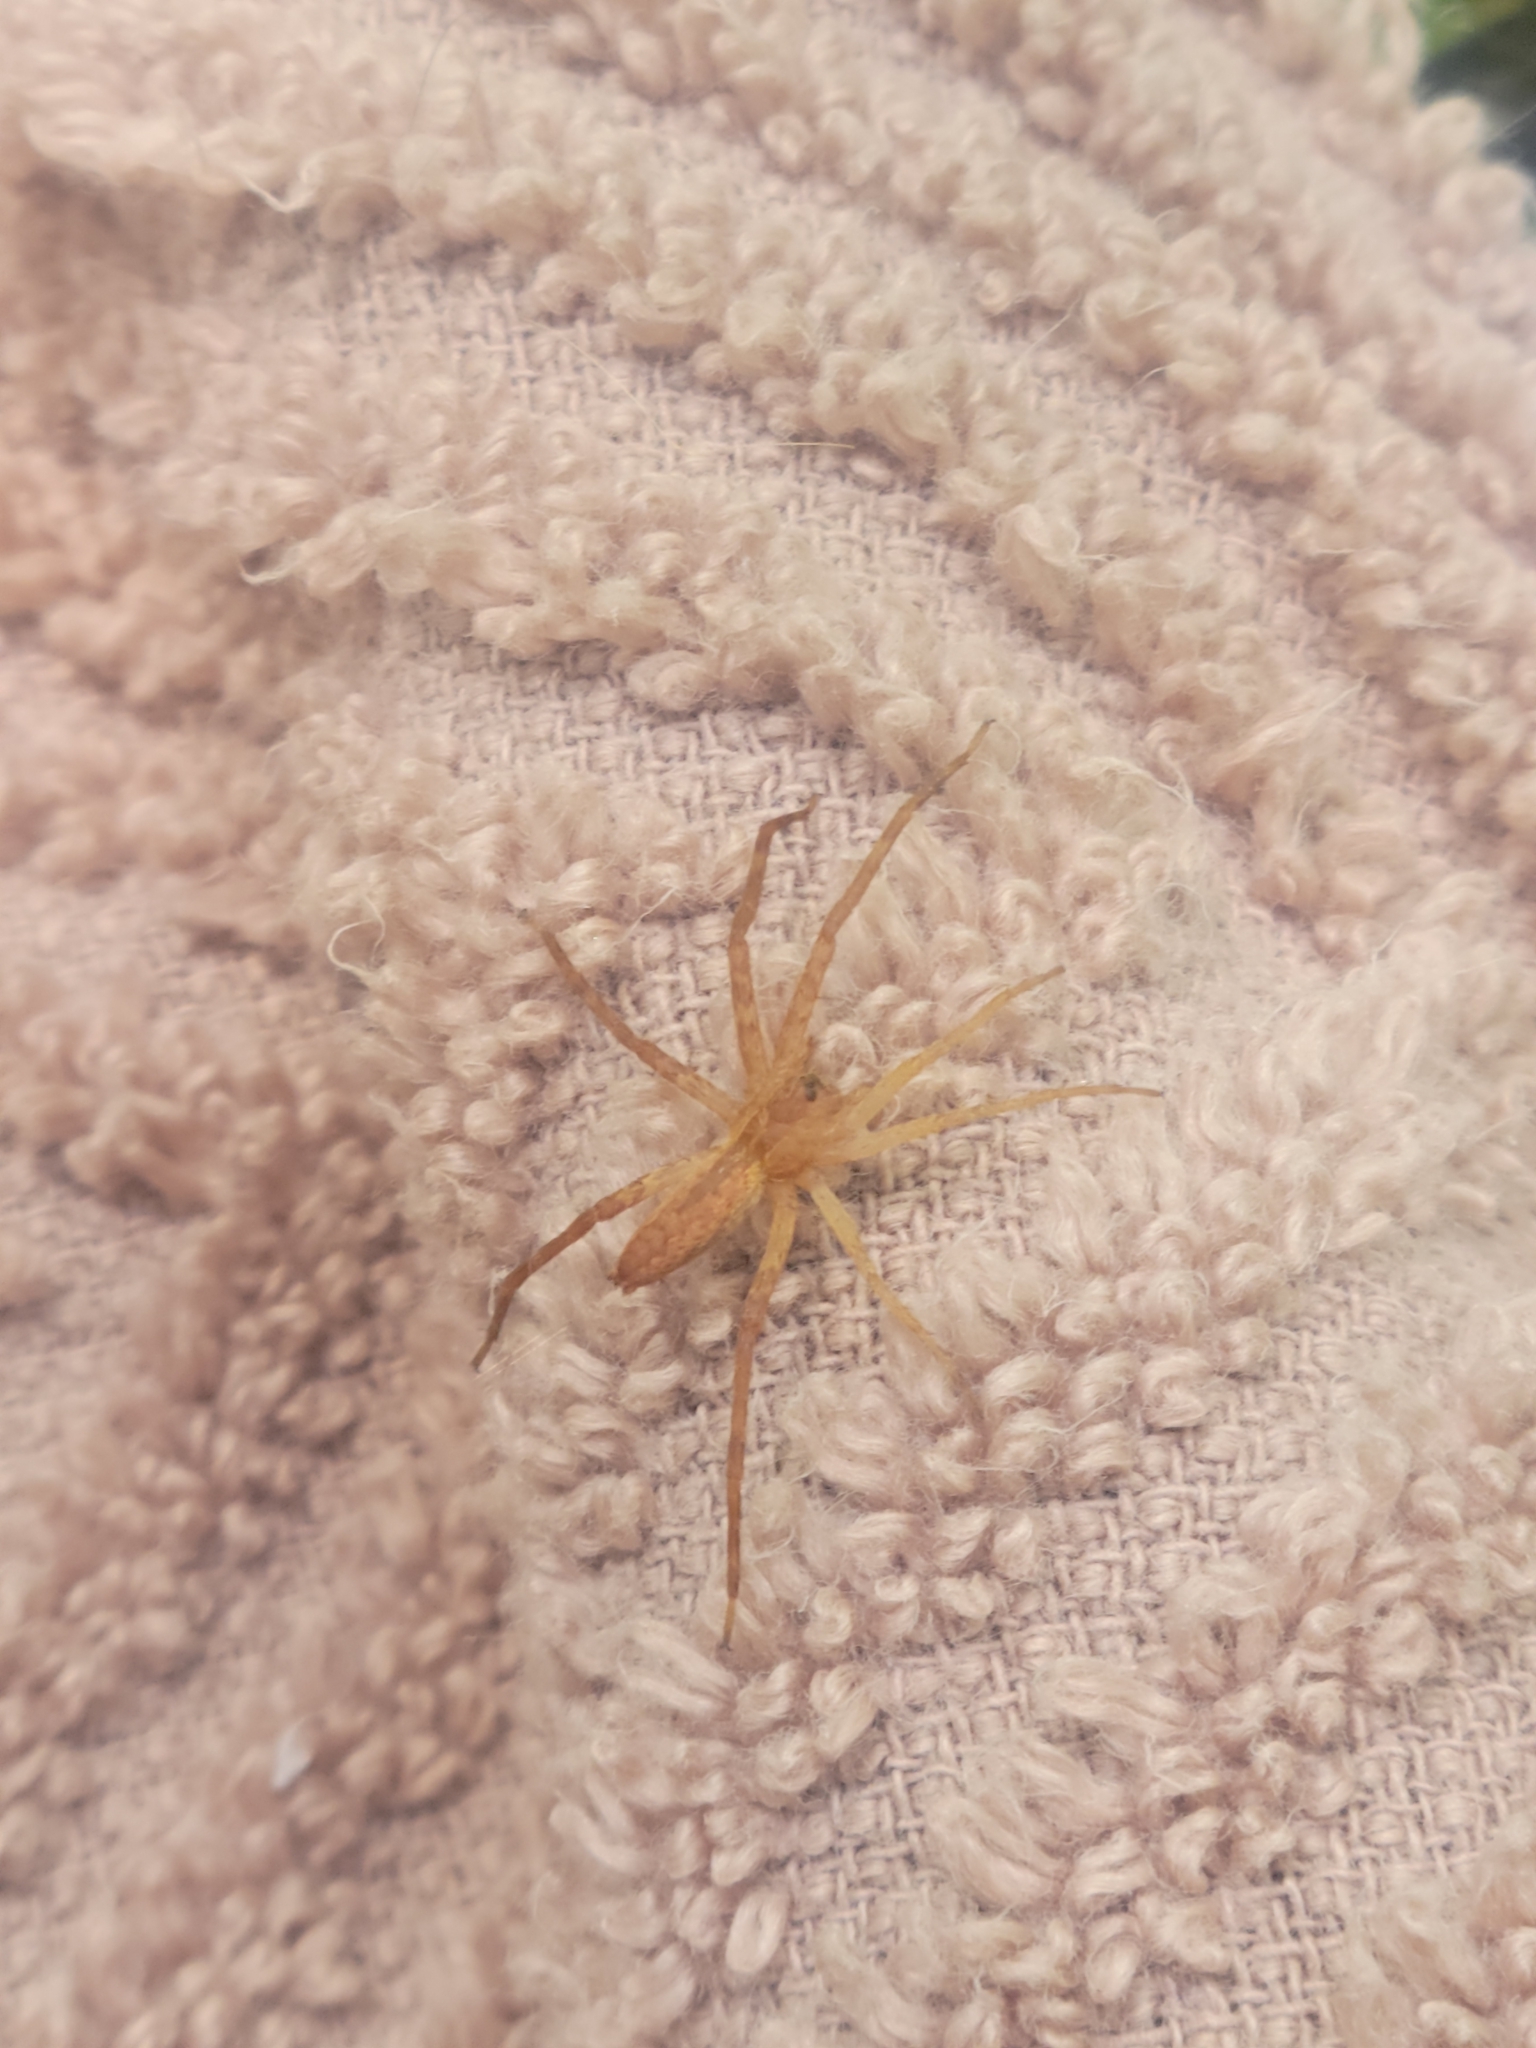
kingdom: Animalia
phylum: Arthropoda
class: Arachnida
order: Araneae
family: Pisauridae
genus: Pisaurina
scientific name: Pisaurina mira
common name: American nursery web spider
